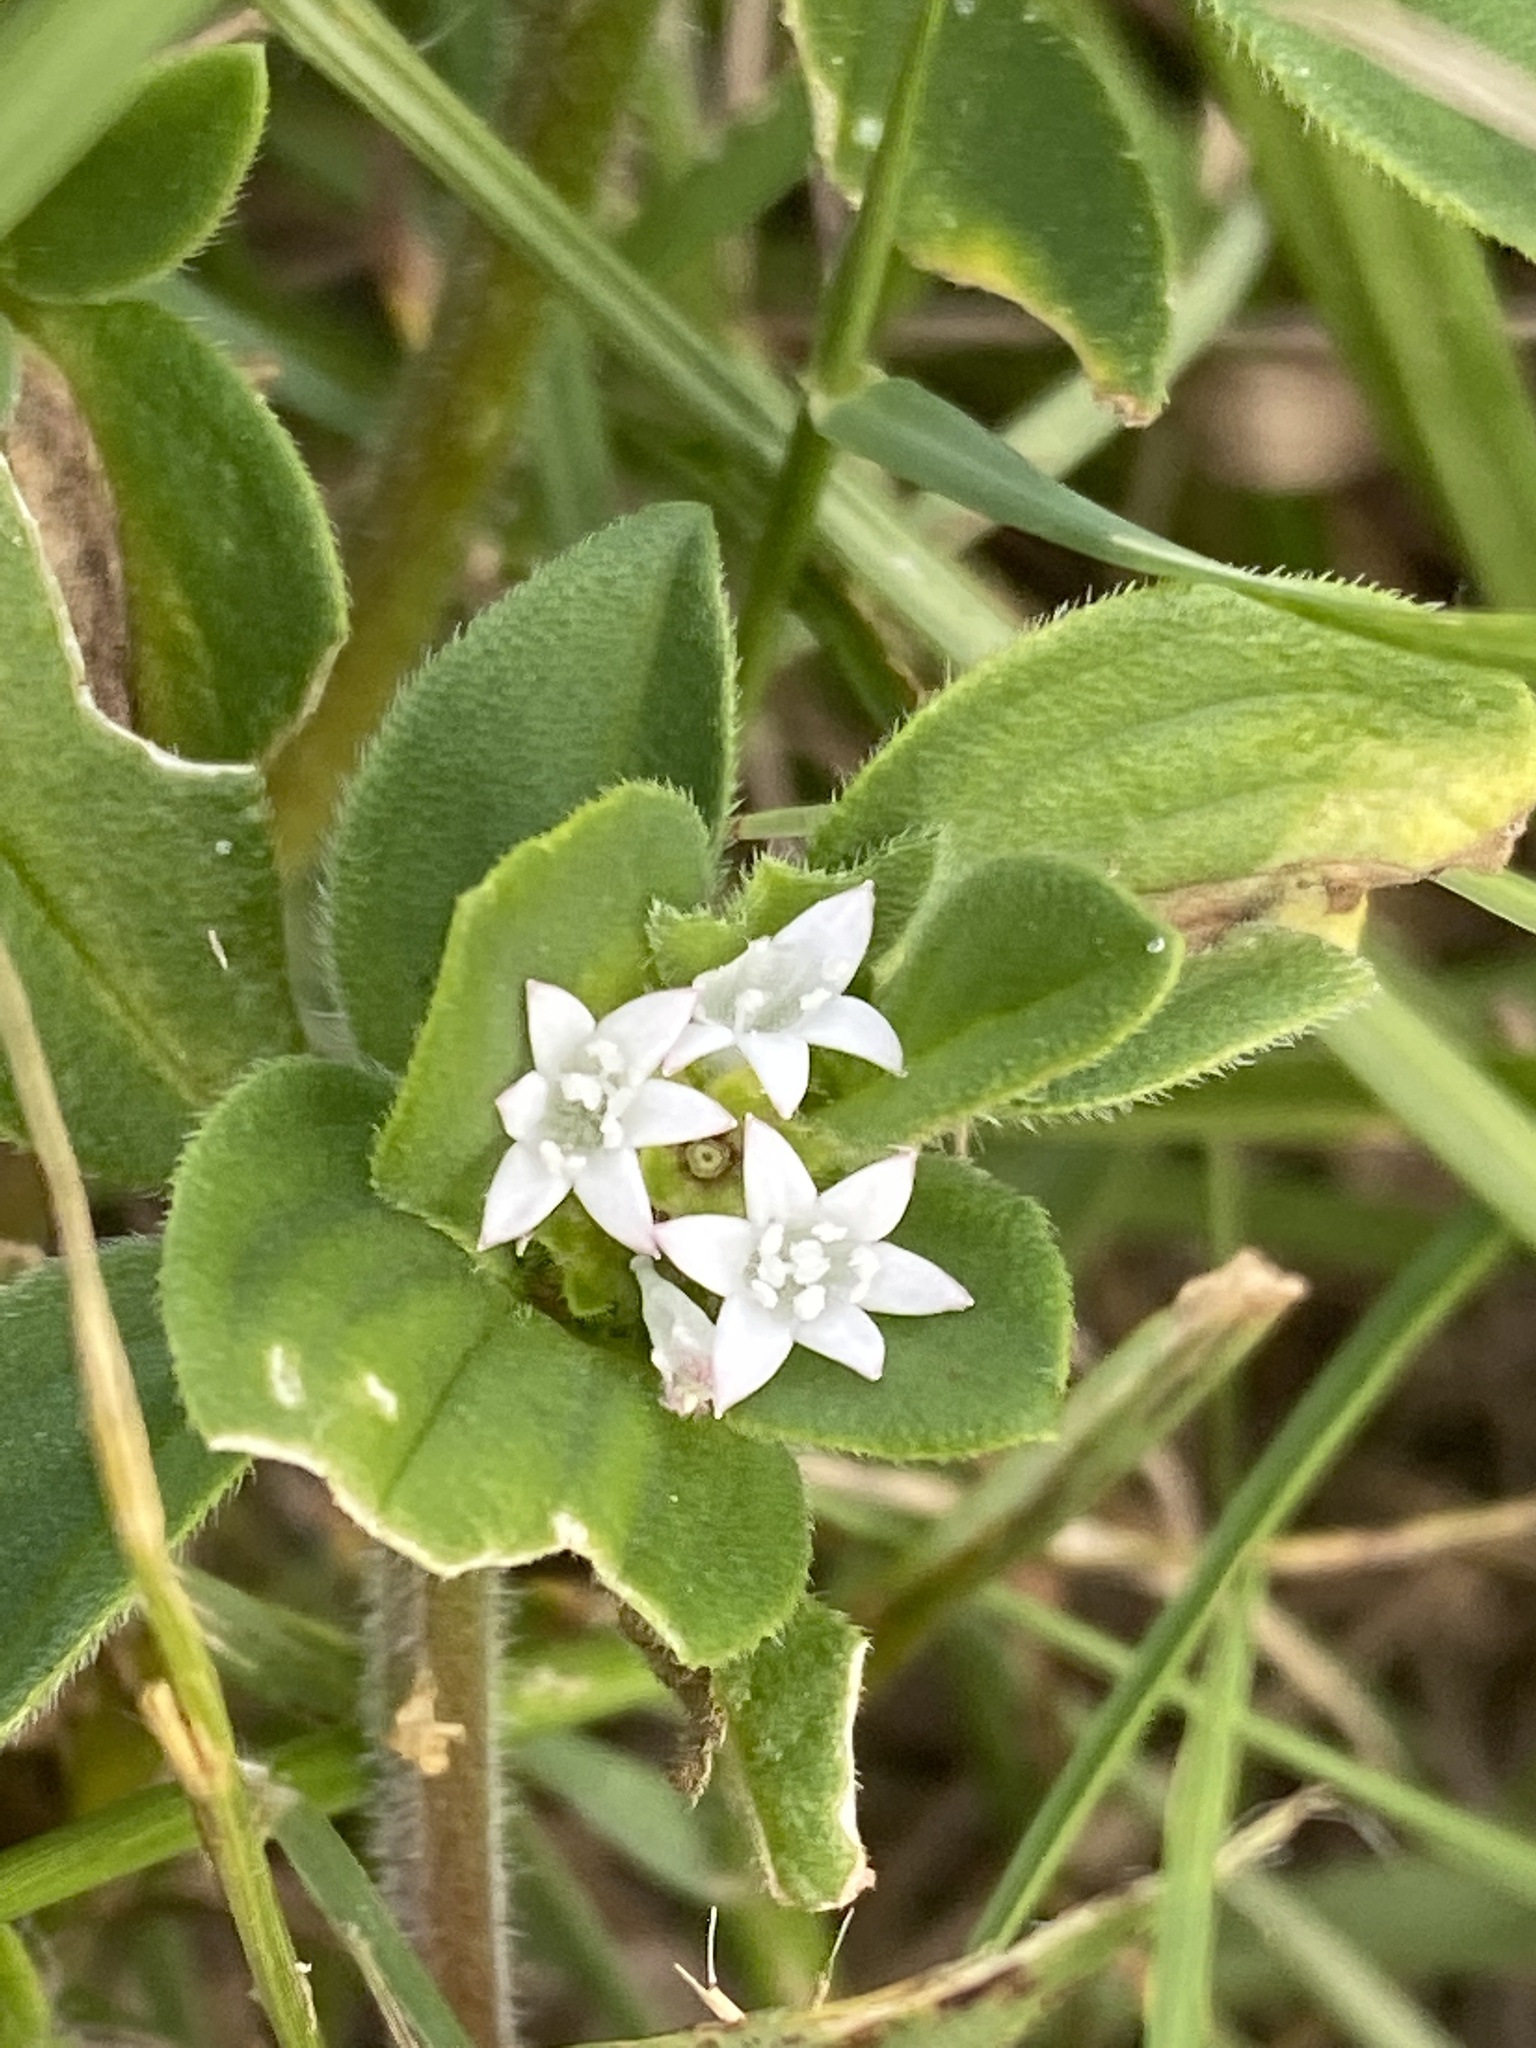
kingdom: Plantae
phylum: Tracheophyta
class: Magnoliopsida
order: Gentianales
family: Rubiaceae
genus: Richardia
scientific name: Richardia brasiliensis
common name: Tropical mexican clover
